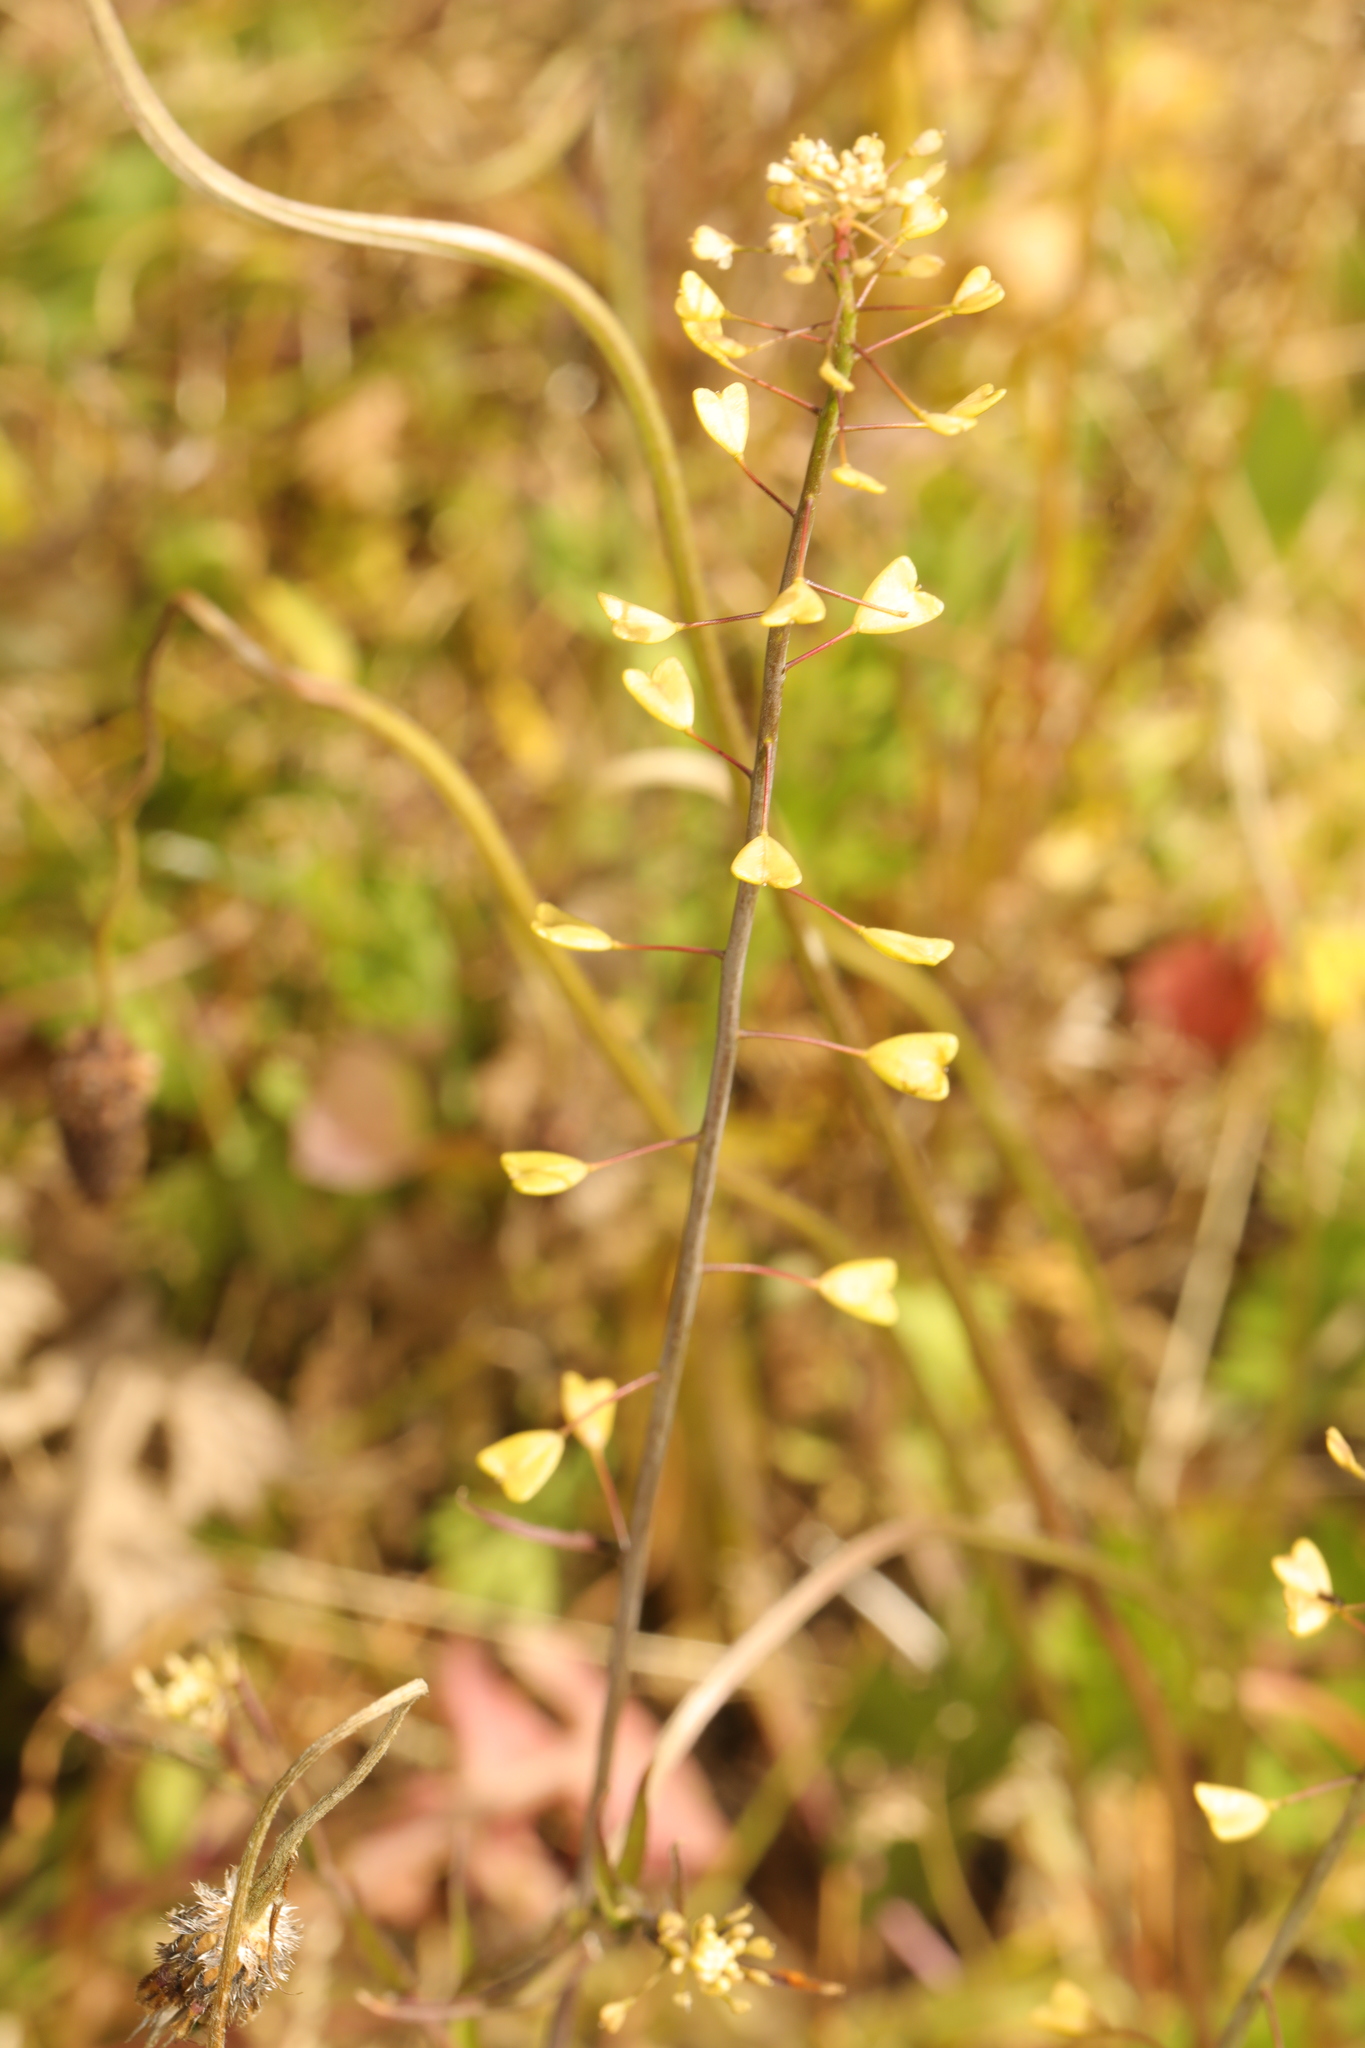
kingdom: Plantae
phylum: Tracheophyta
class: Magnoliopsida
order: Brassicales
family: Brassicaceae
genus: Capsella
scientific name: Capsella bursa-pastoris
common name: Shepherd's purse
